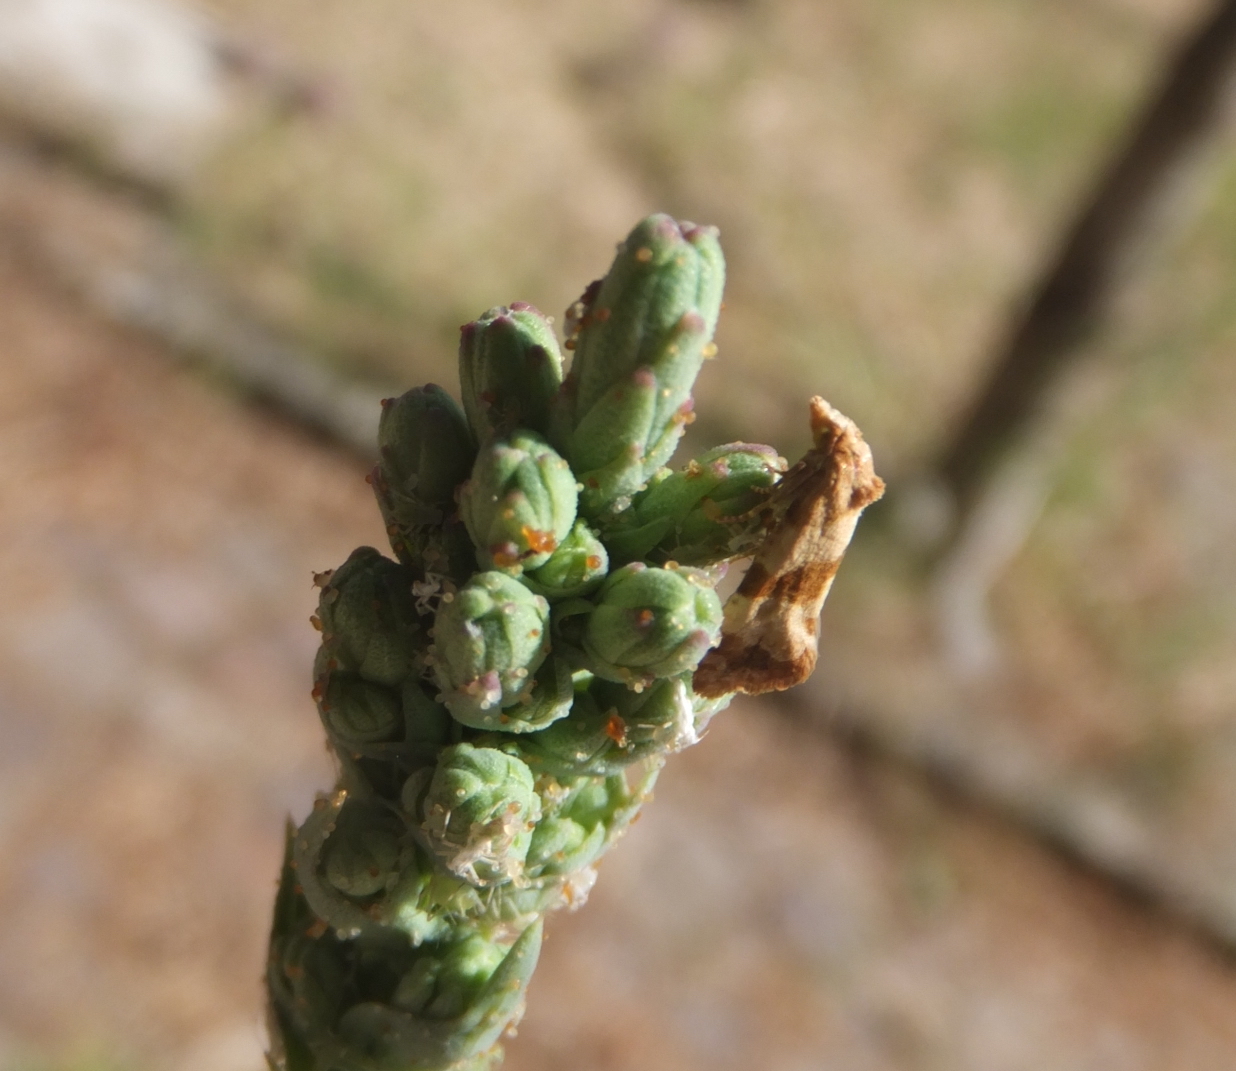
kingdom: Animalia
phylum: Arthropoda
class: Insecta
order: Lepidoptera
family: Tortricidae
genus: Phalonidia
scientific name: Phalonidia contractana
